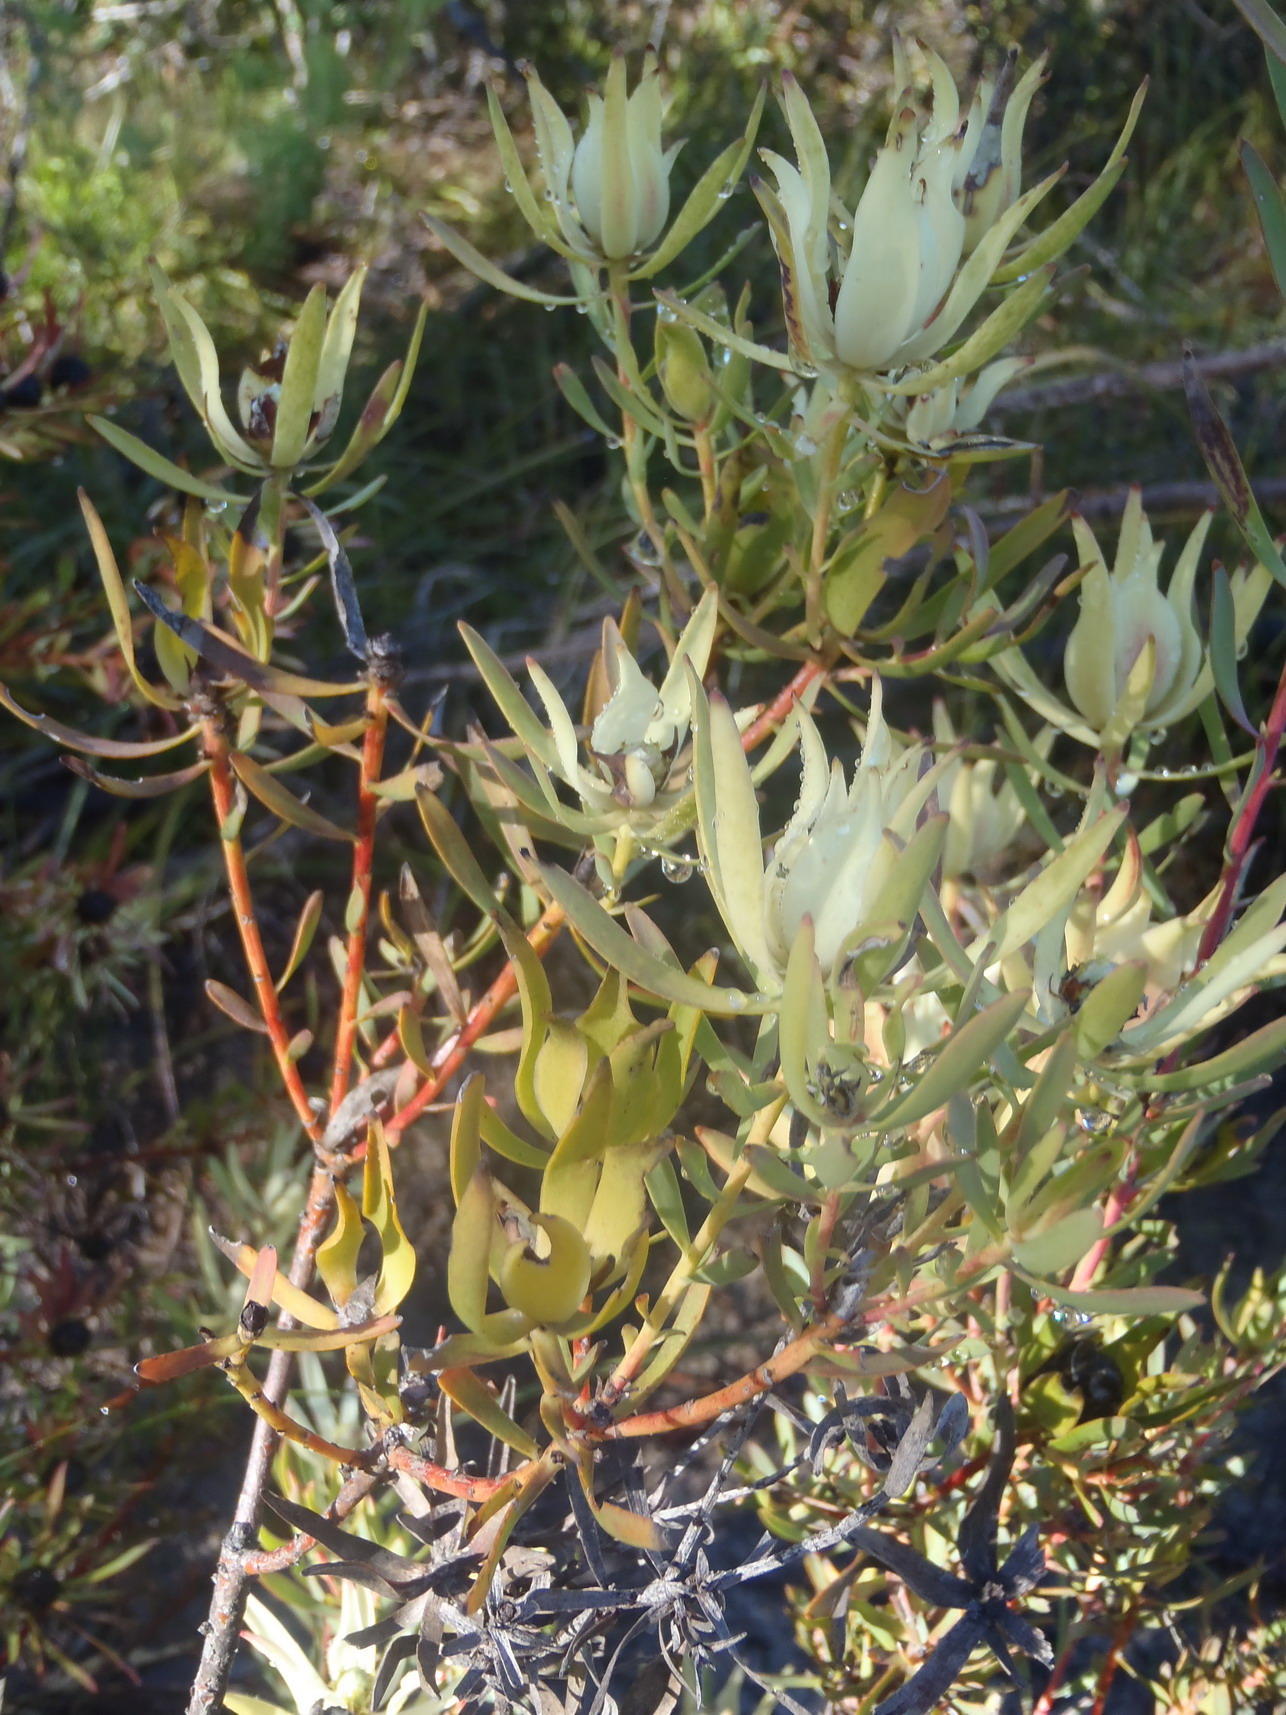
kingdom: Plantae
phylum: Tracheophyta
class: Magnoliopsida
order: Proteales
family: Proteaceae
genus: Leucadendron
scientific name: Leucadendron salignum
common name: Common sunshine conebush
